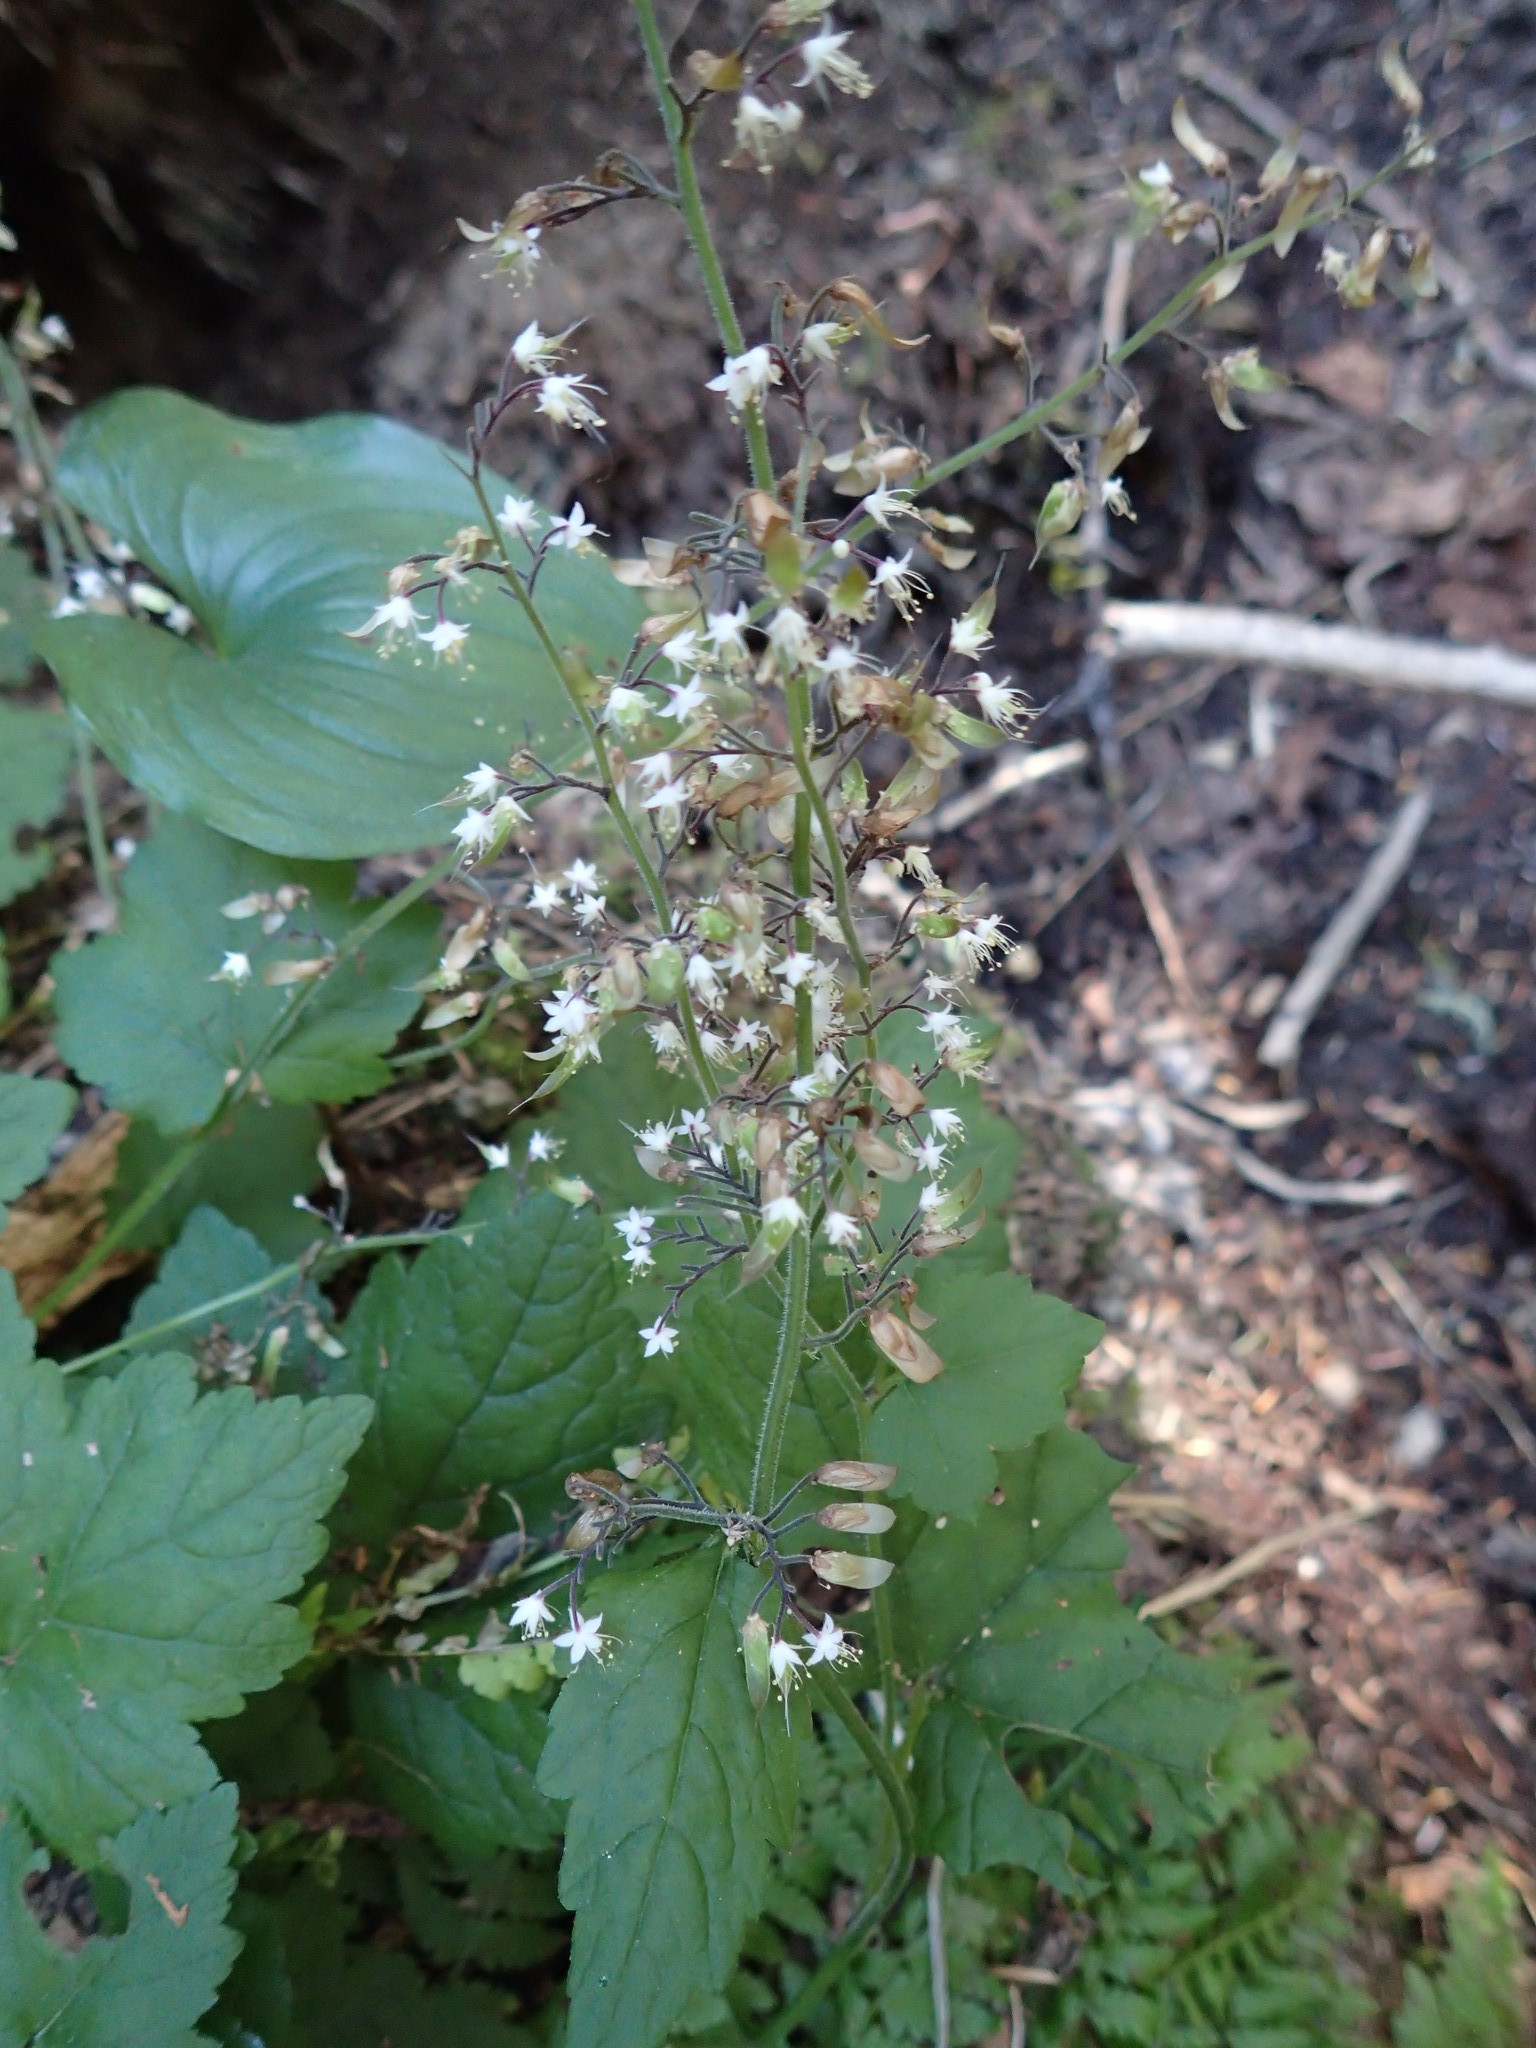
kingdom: Plantae
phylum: Tracheophyta
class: Magnoliopsida
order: Saxifragales
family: Saxifragaceae
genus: Tiarella
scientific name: Tiarella trifoliata
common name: Sugar-scoop
